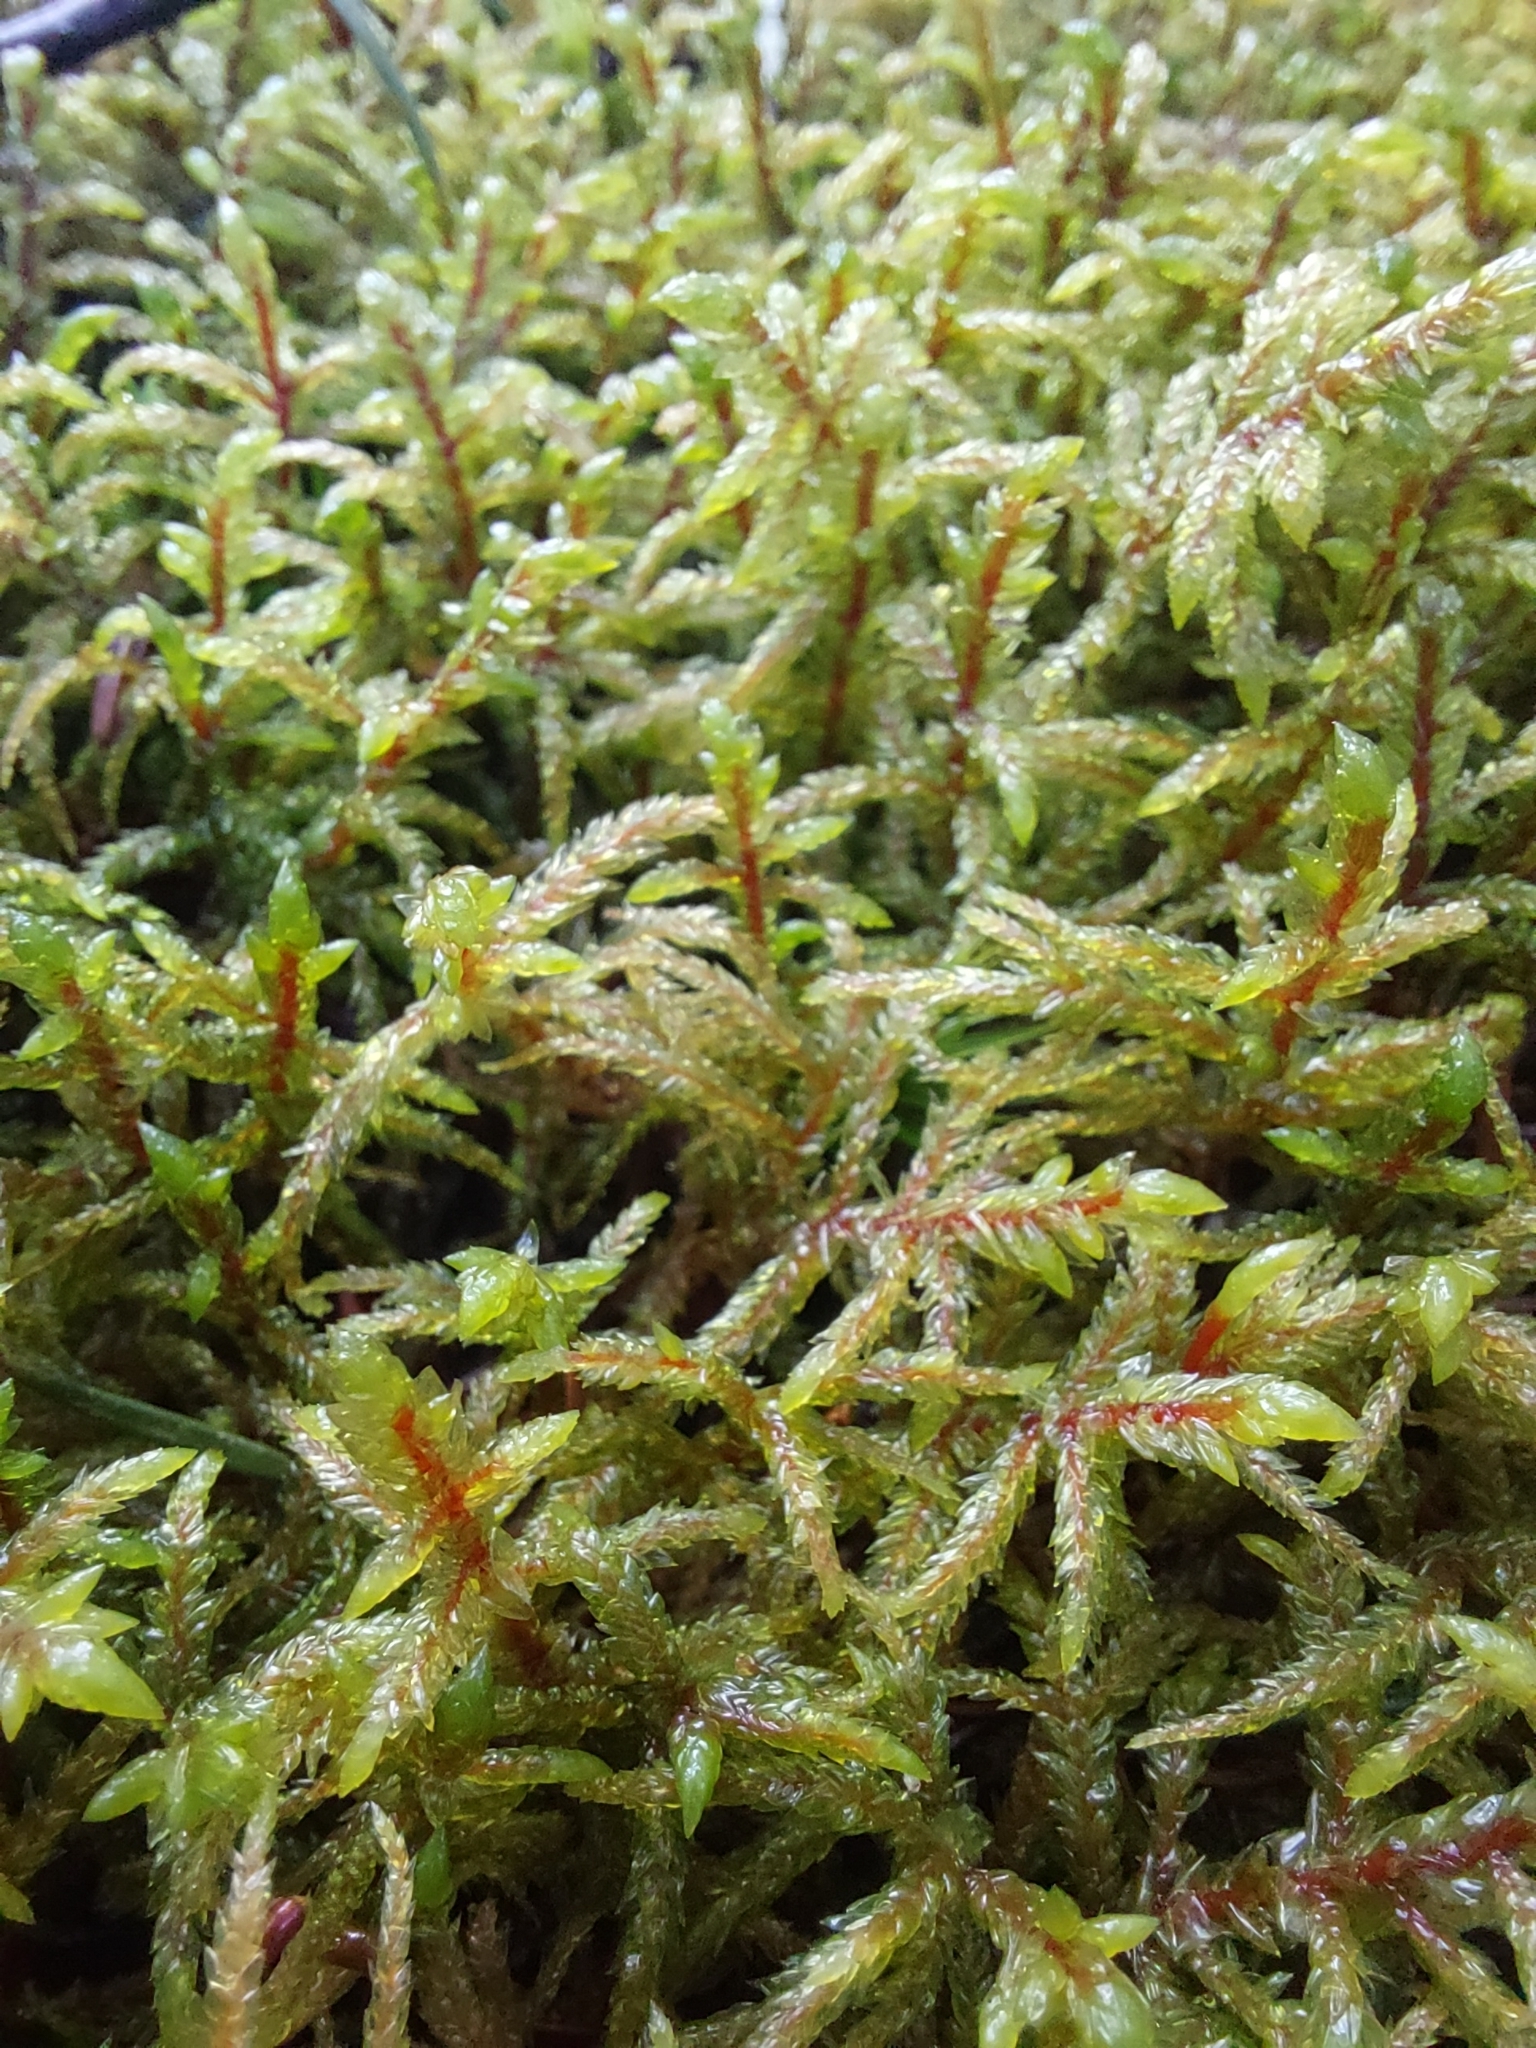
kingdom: Plantae
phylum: Bryophyta
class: Bryopsida
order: Hypnales
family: Hylocomiaceae
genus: Pleurozium
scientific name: Pleurozium schreberi
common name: Red-stemmed feather moss
